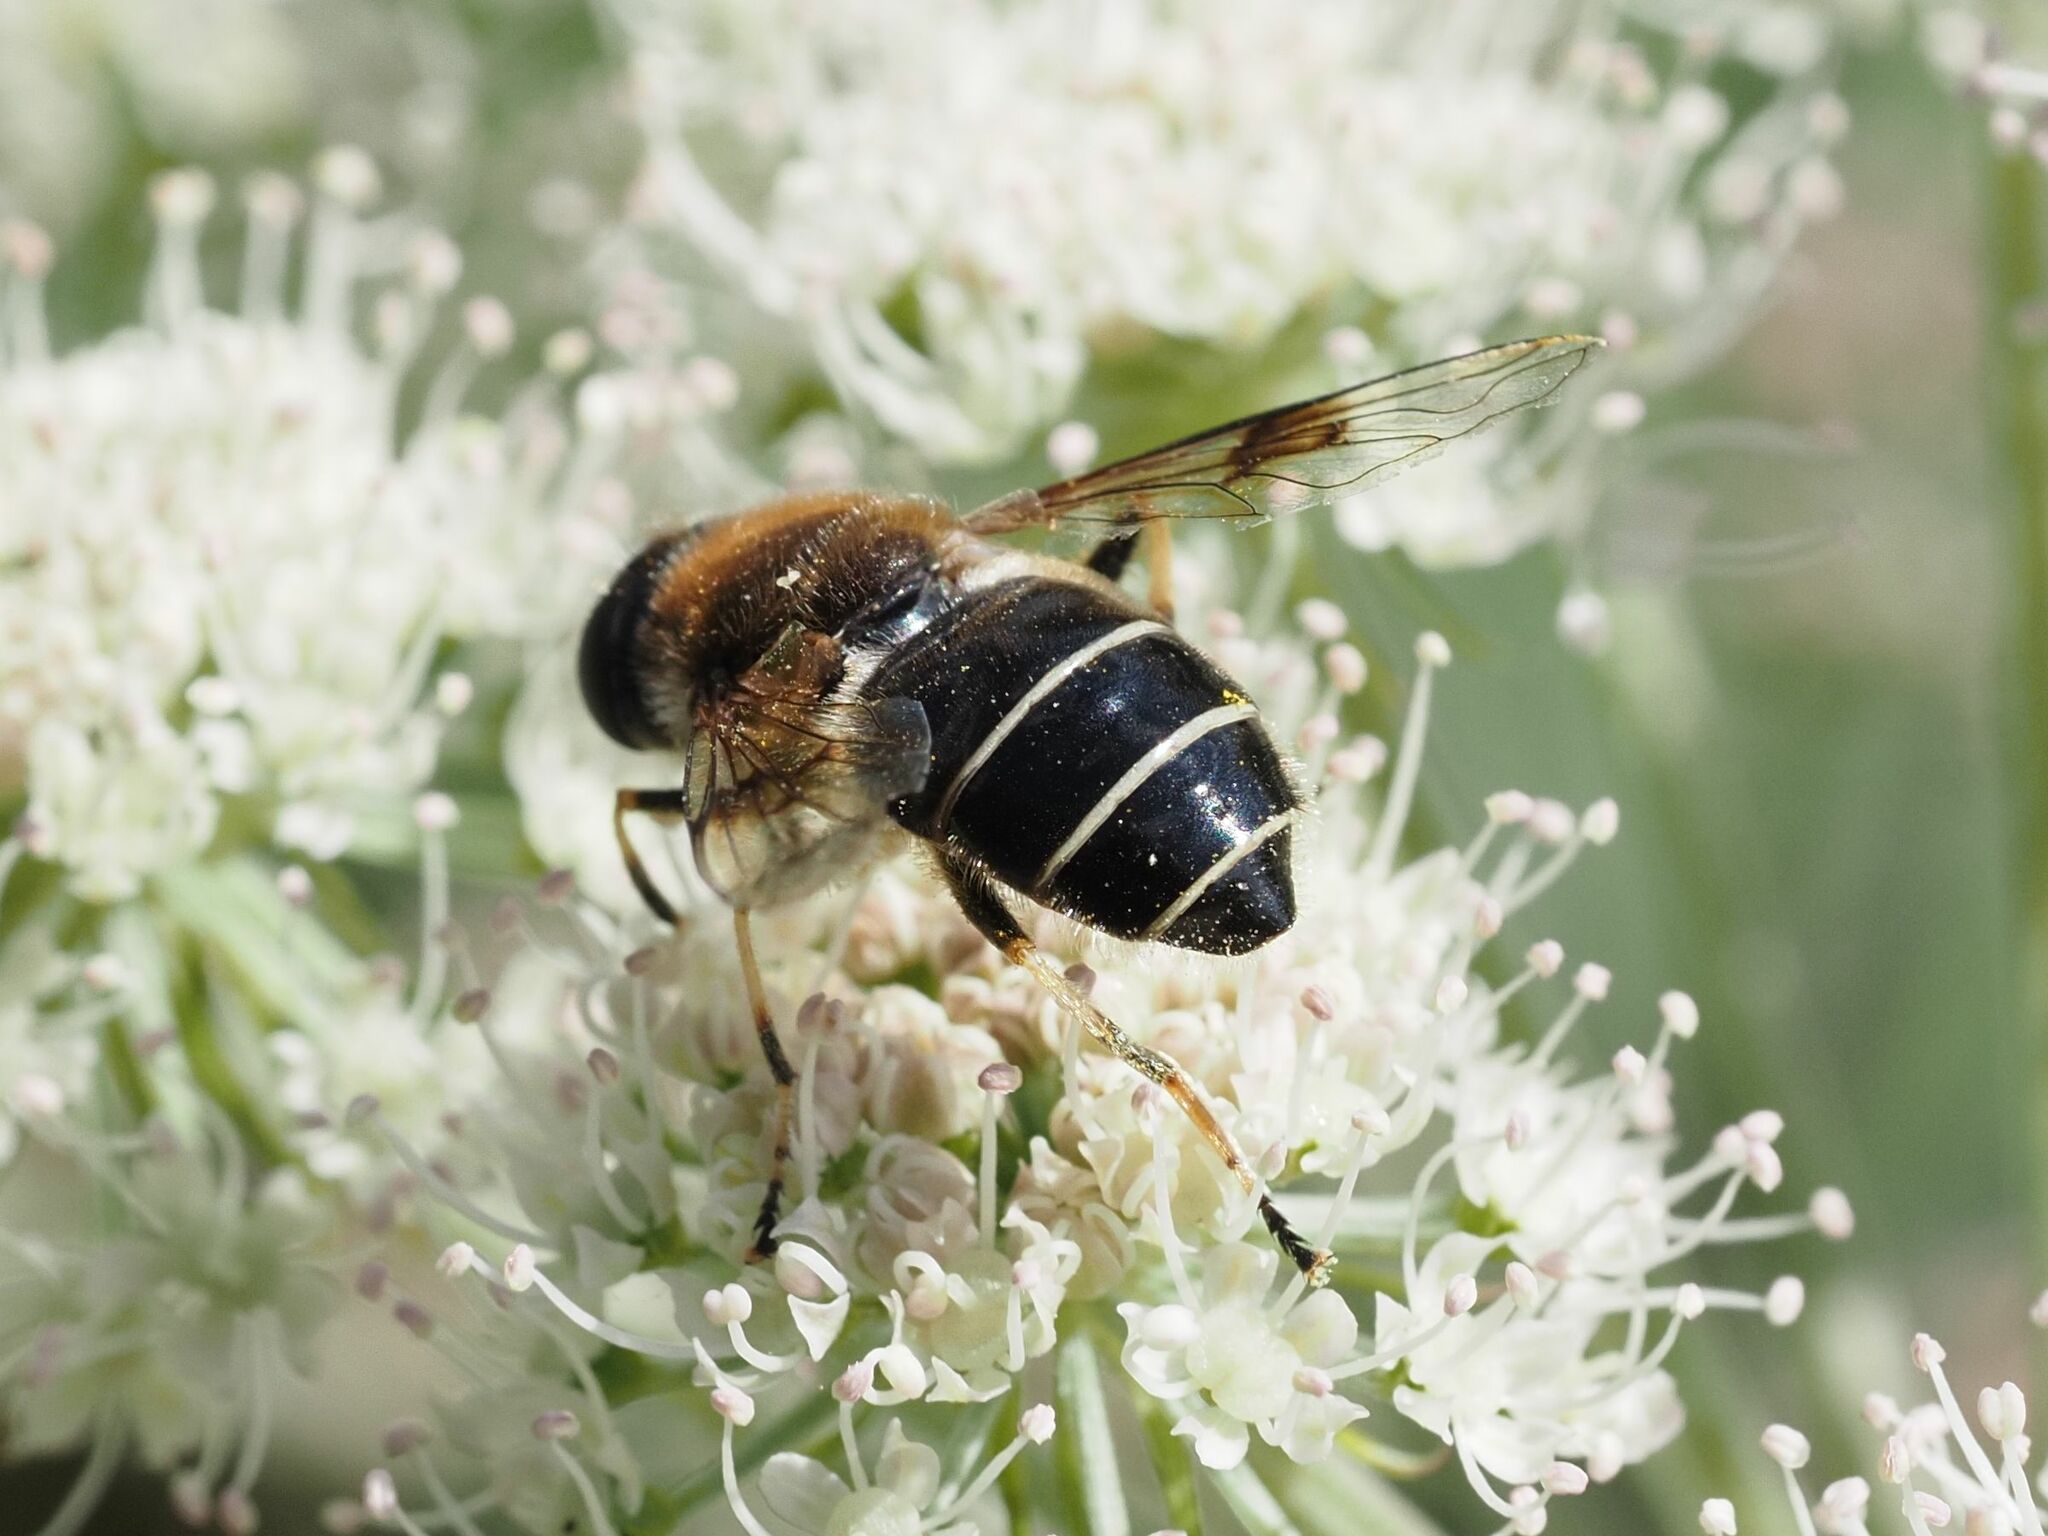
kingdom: Animalia
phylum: Arthropoda
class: Insecta
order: Diptera
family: Syrphidae
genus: Eristalis
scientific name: Eristalis rupium
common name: Hover fly
